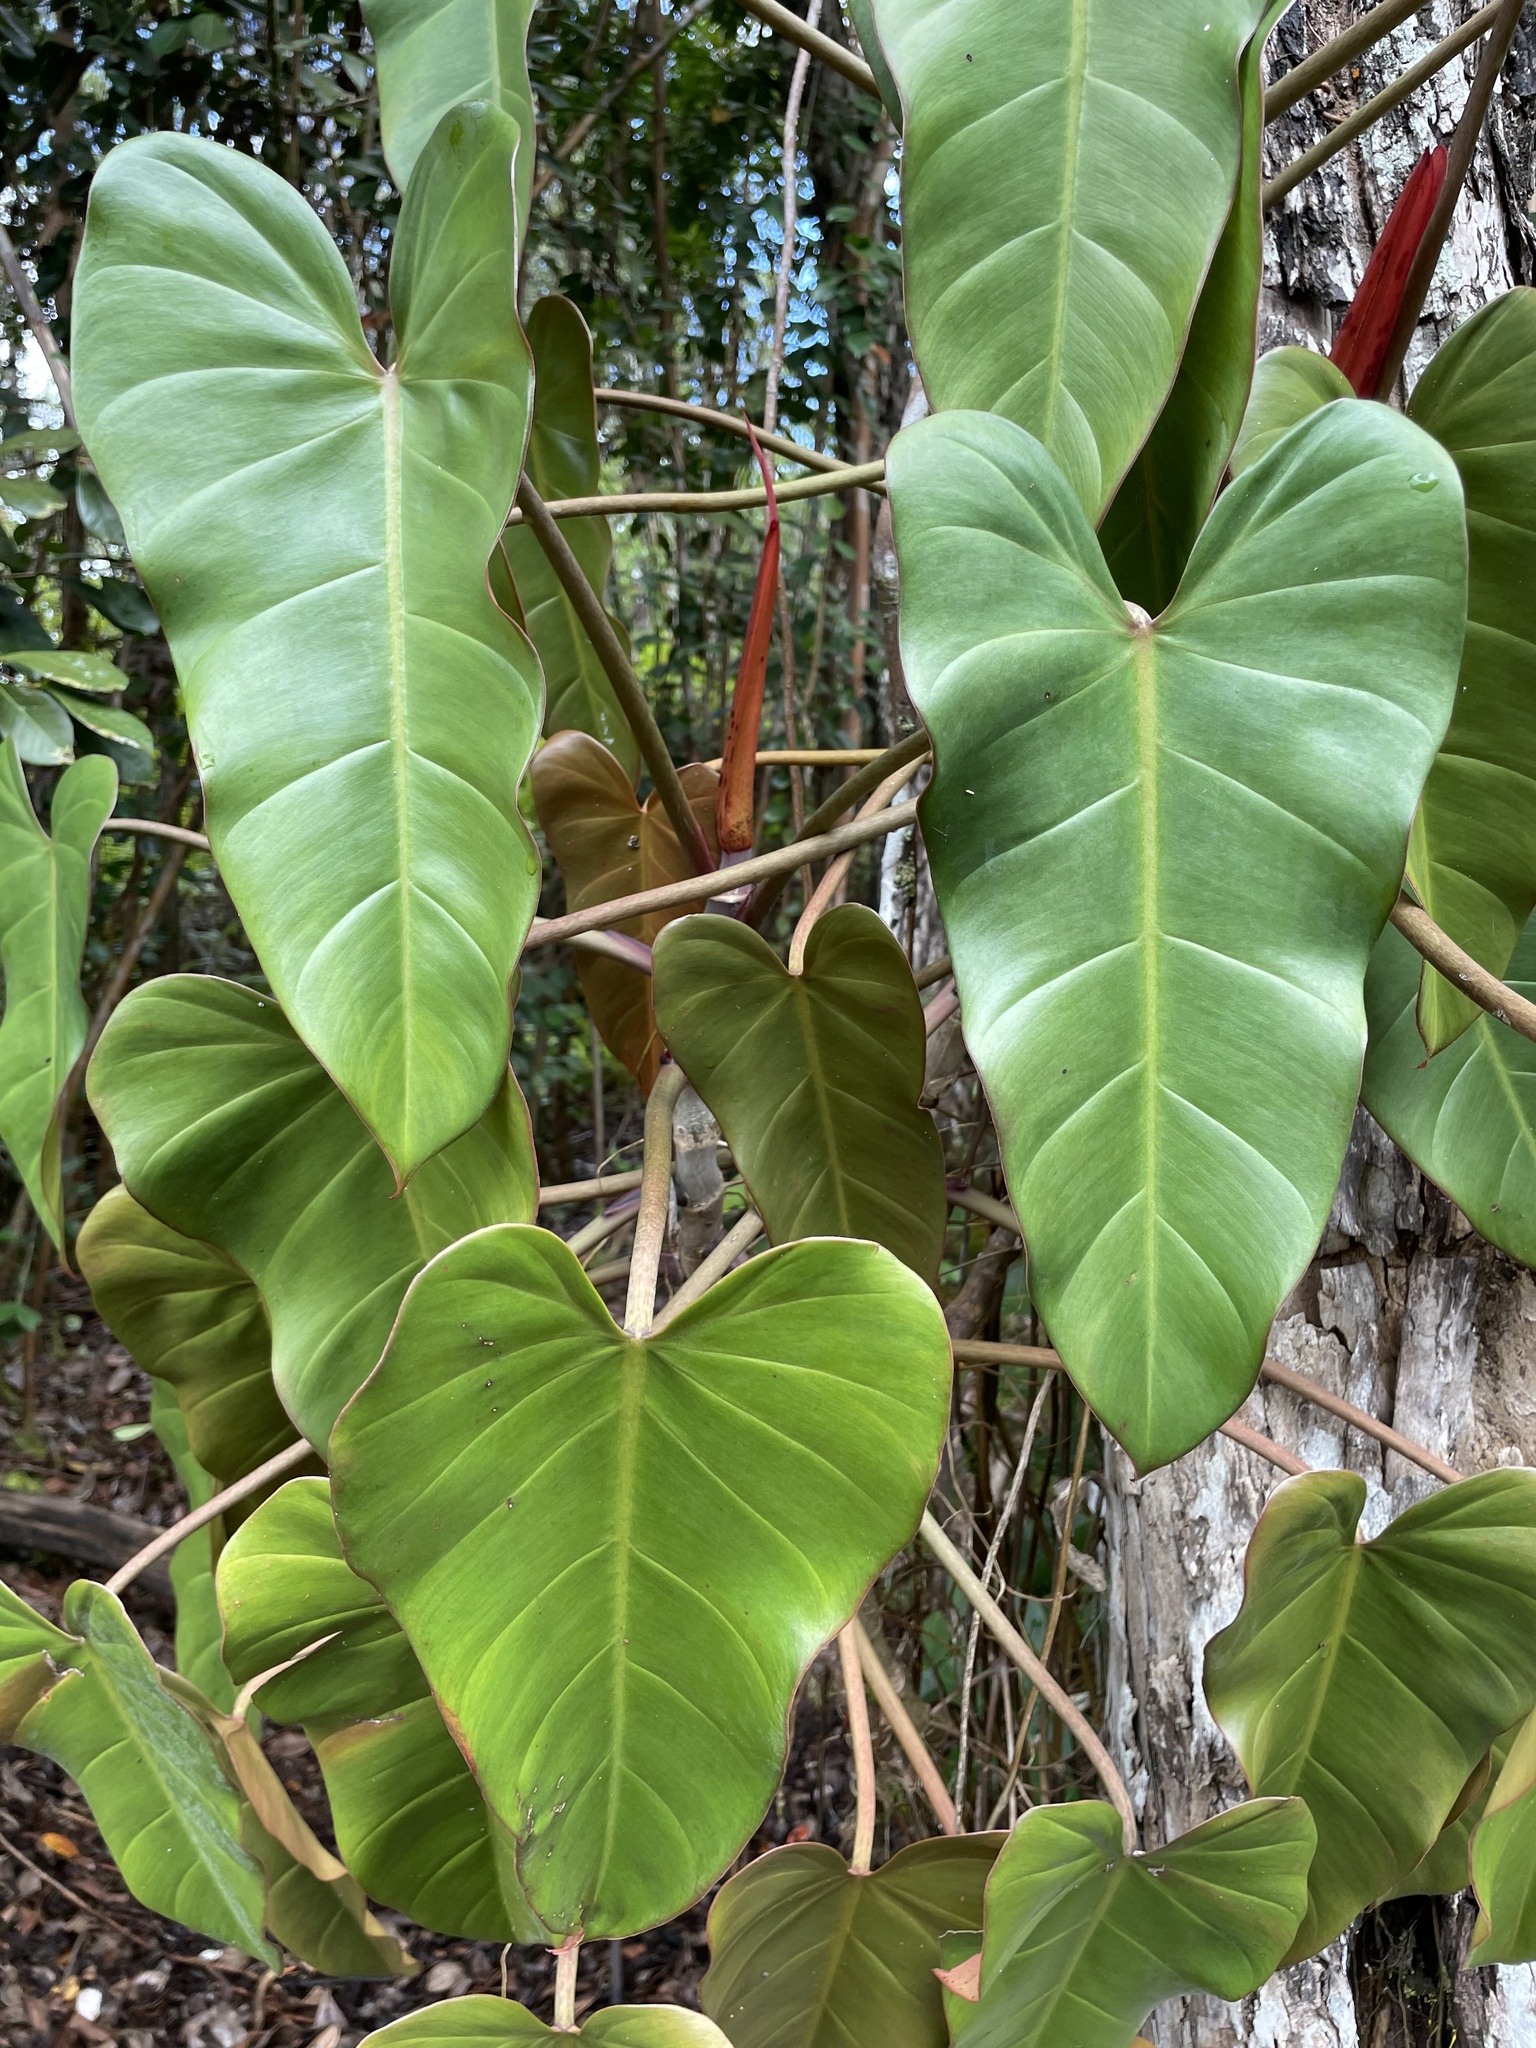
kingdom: Plantae
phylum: Tracheophyta
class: Liliopsida
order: Alismatales
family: Araceae
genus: Philodendron
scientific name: Philodendron erubescens
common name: Philodendron
